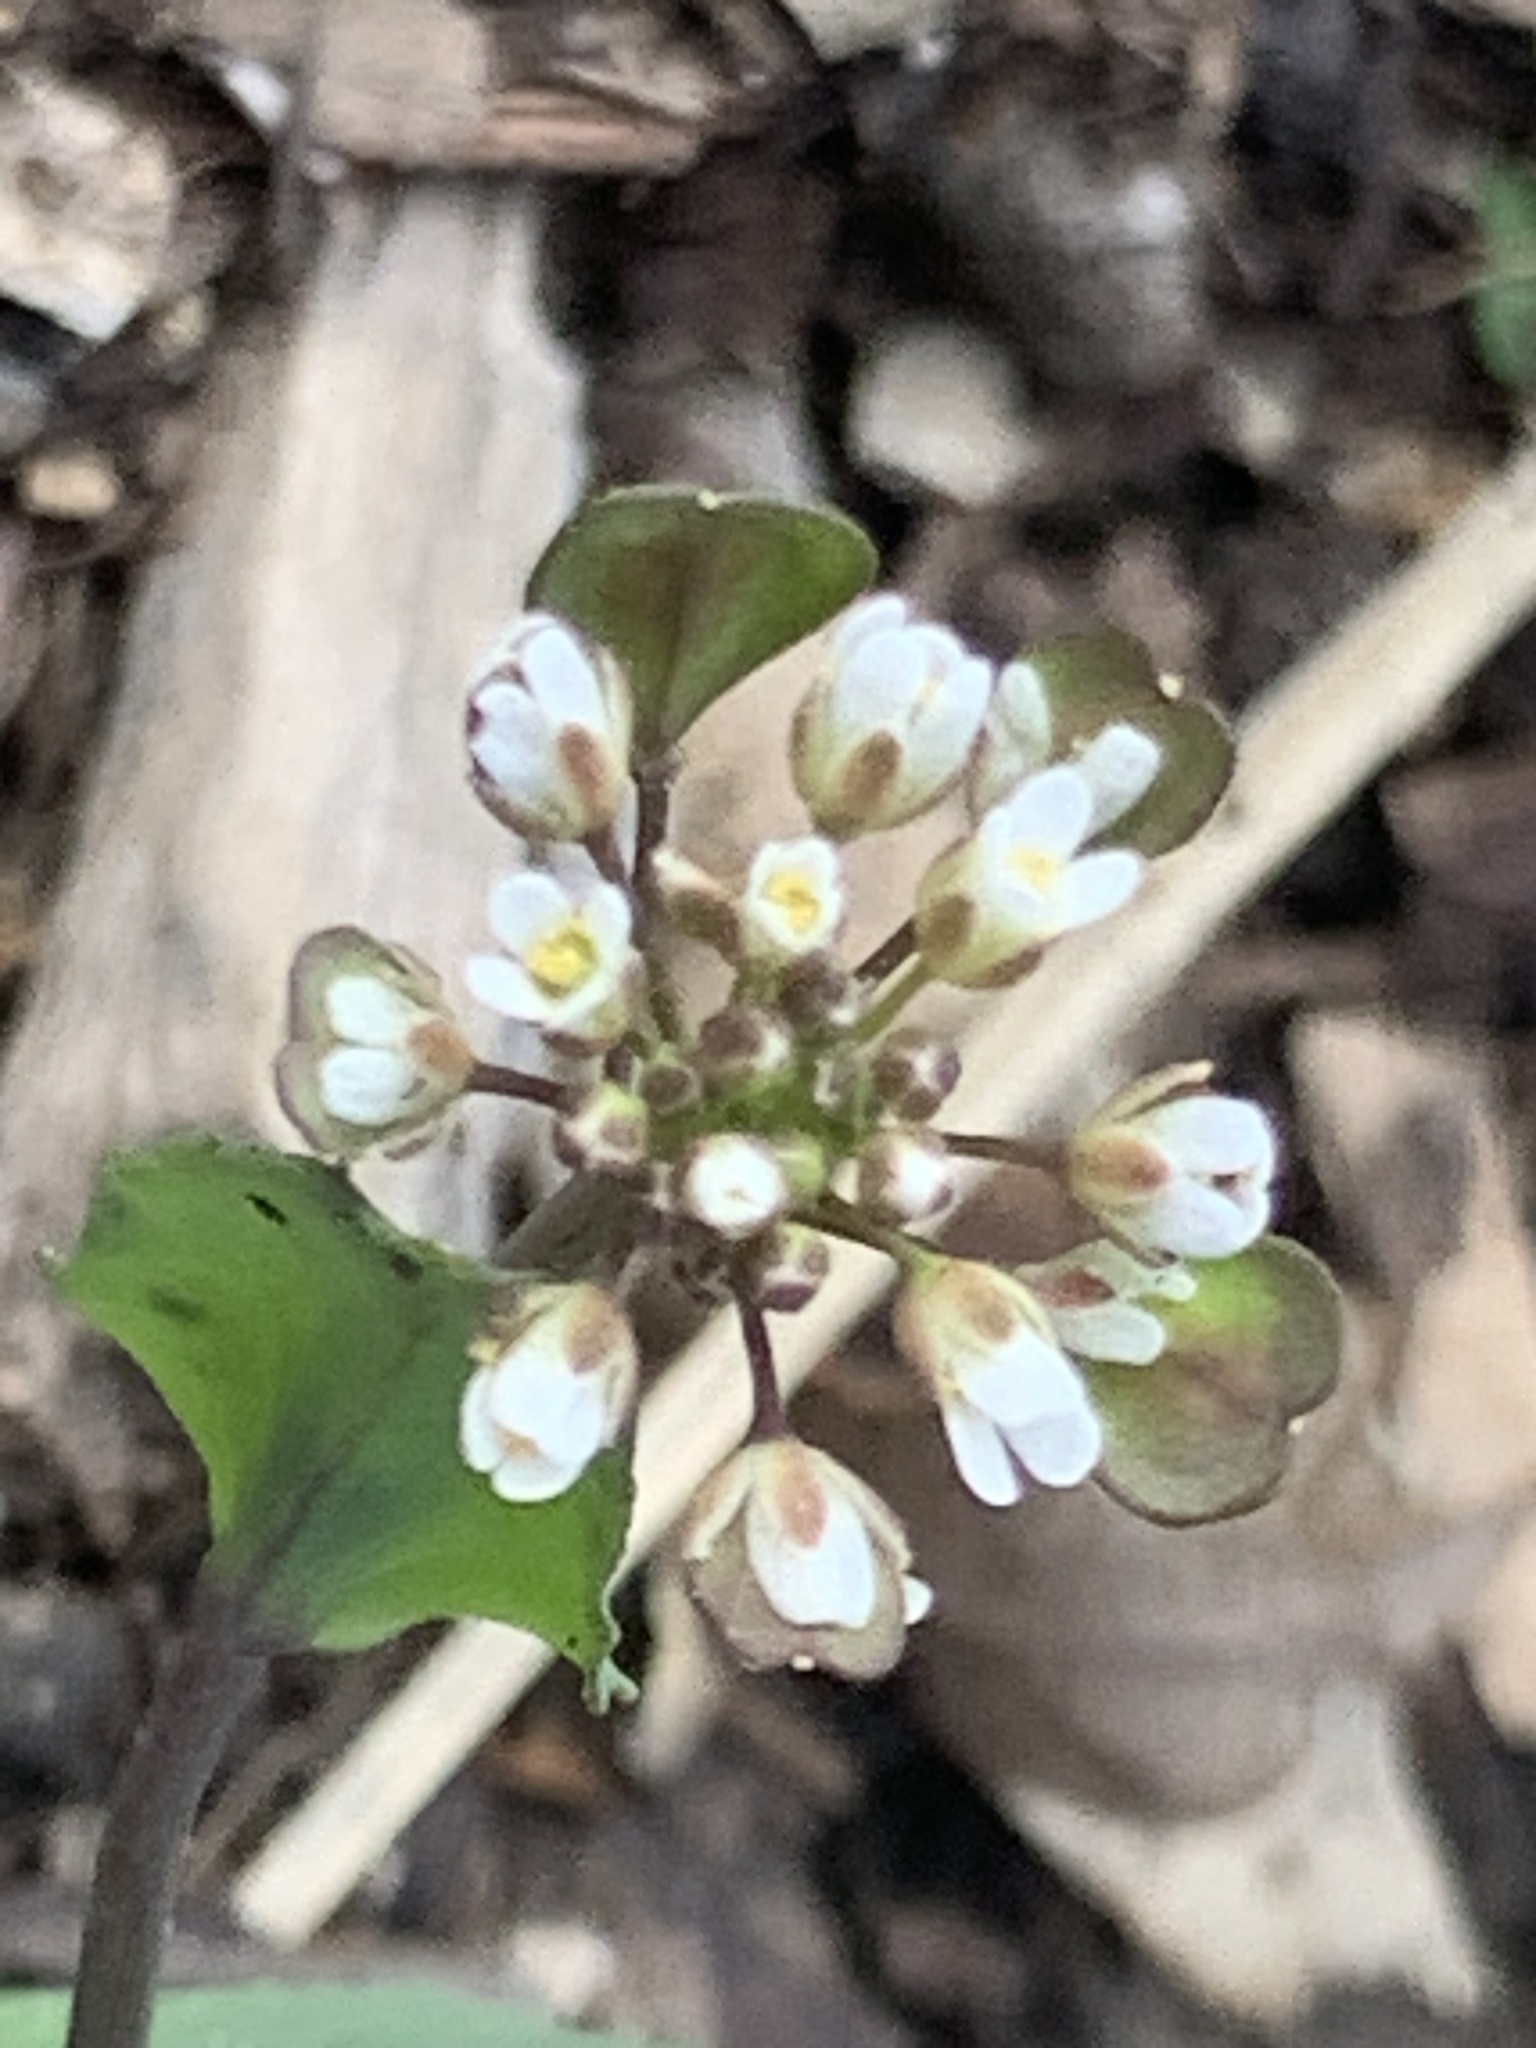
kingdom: Plantae
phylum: Tracheophyta
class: Magnoliopsida
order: Brassicales
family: Brassicaceae
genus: Noccaea
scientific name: Noccaea perfoliata
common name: Perfoliate pennycress
